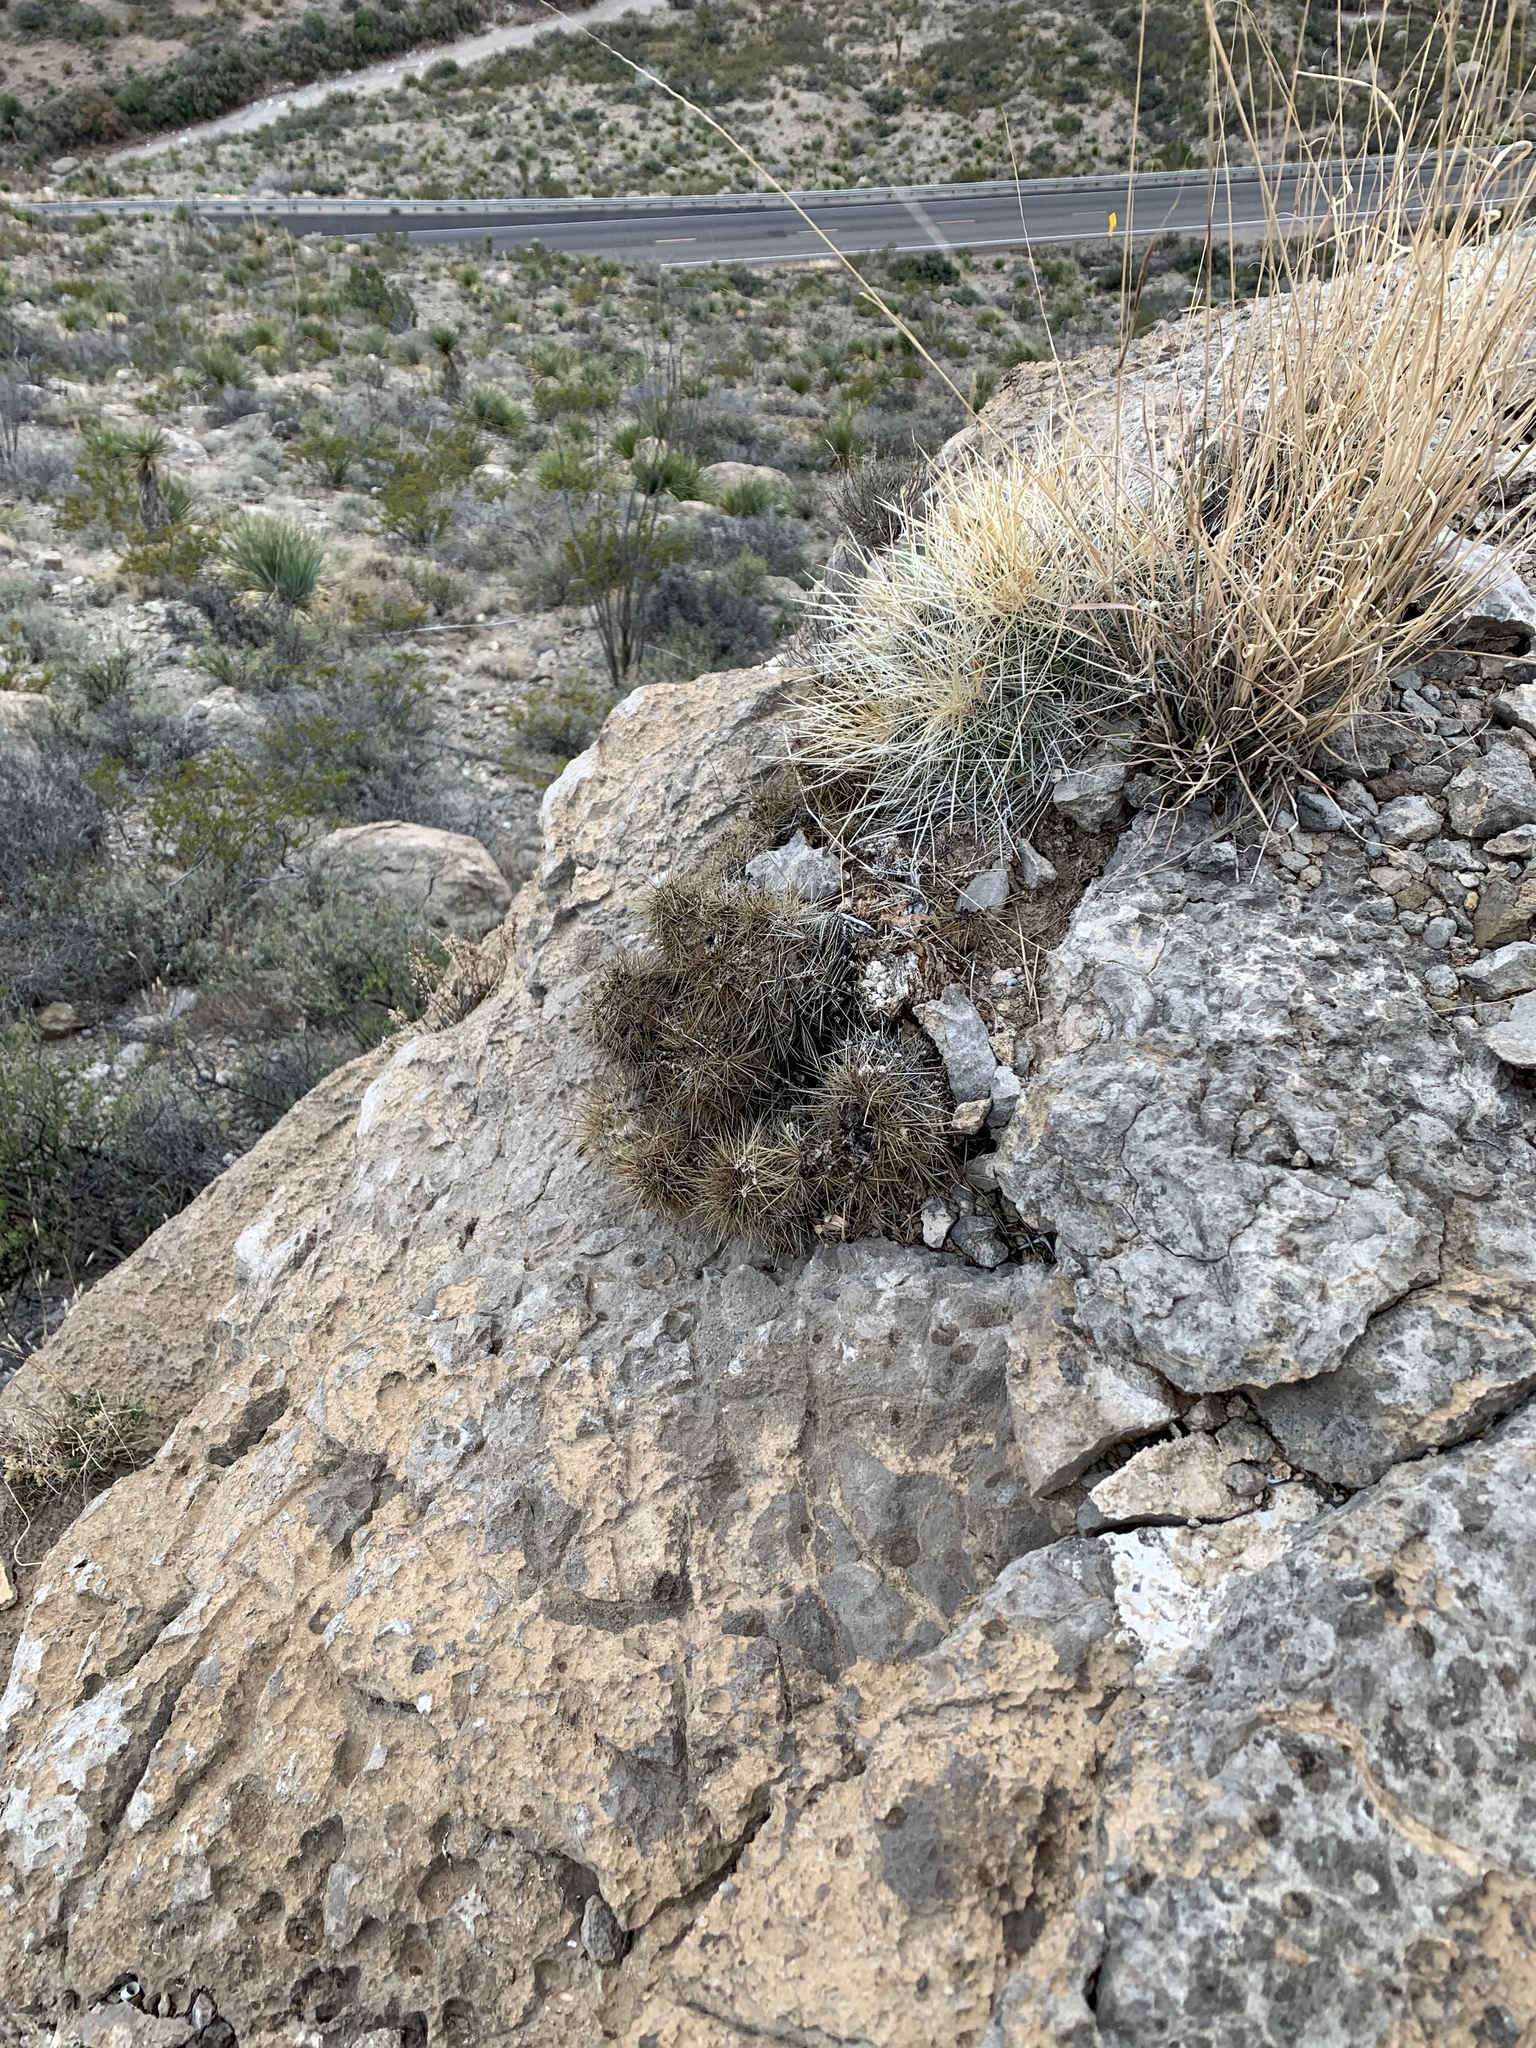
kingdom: Plantae
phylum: Tracheophyta
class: Magnoliopsida
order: Caryophyllales
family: Cactaceae
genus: Echinocereus
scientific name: Echinocereus stramineus
